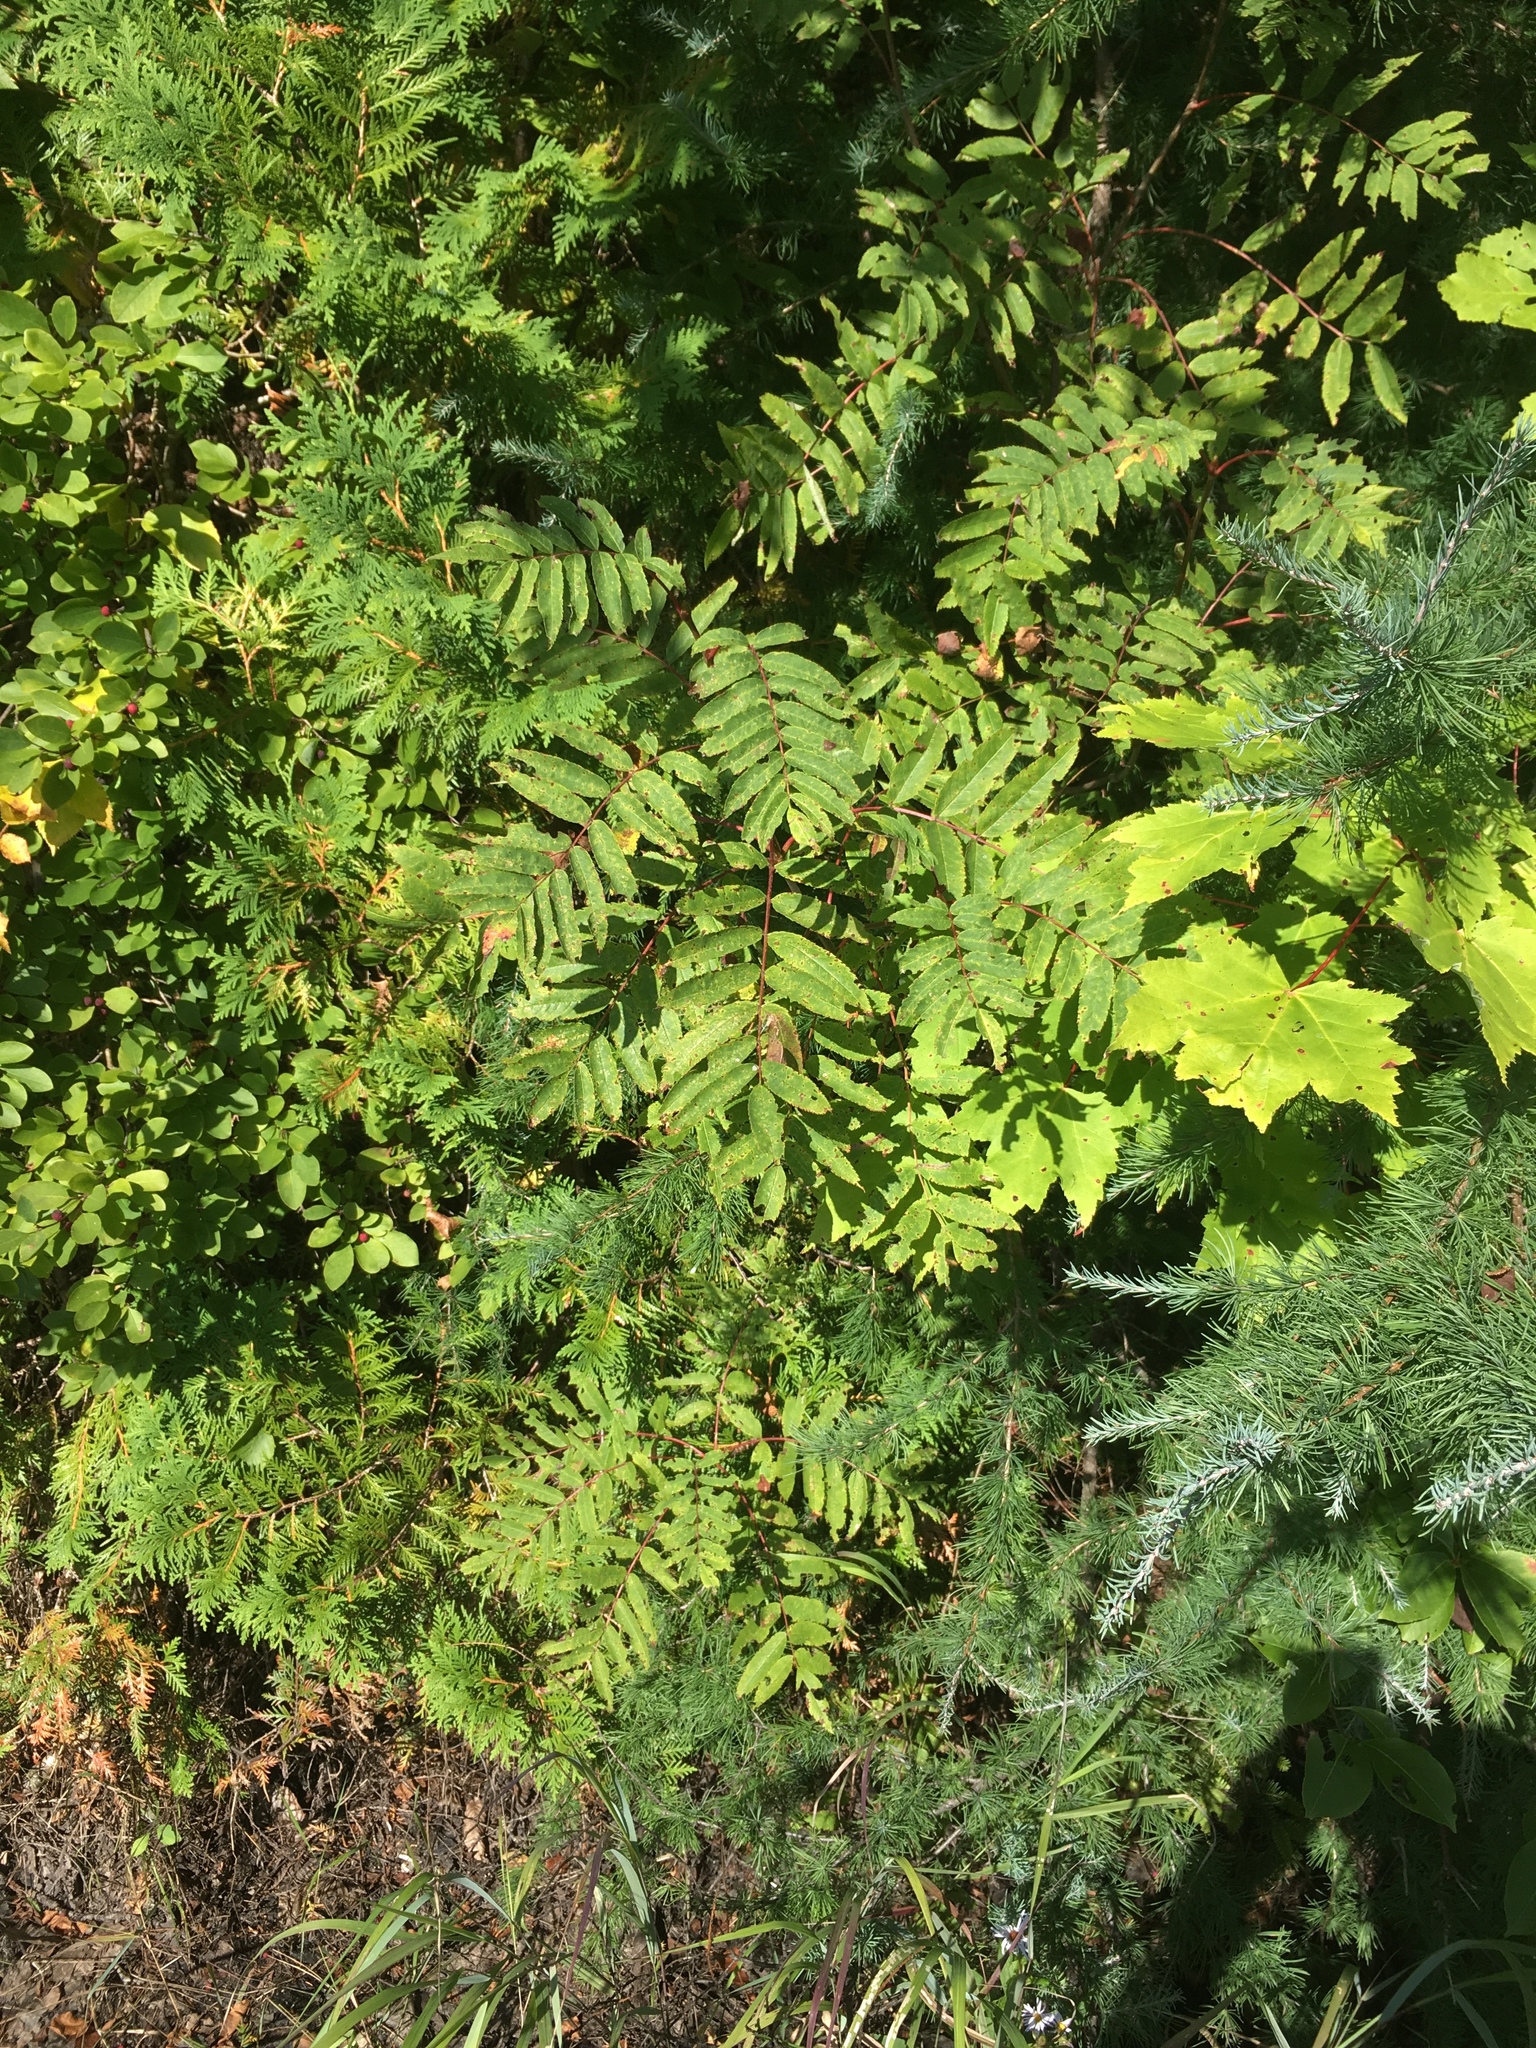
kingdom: Plantae
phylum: Tracheophyta
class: Magnoliopsida
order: Rosales
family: Rosaceae
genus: Sorbus
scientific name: Sorbus americana
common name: American mountain-ash
